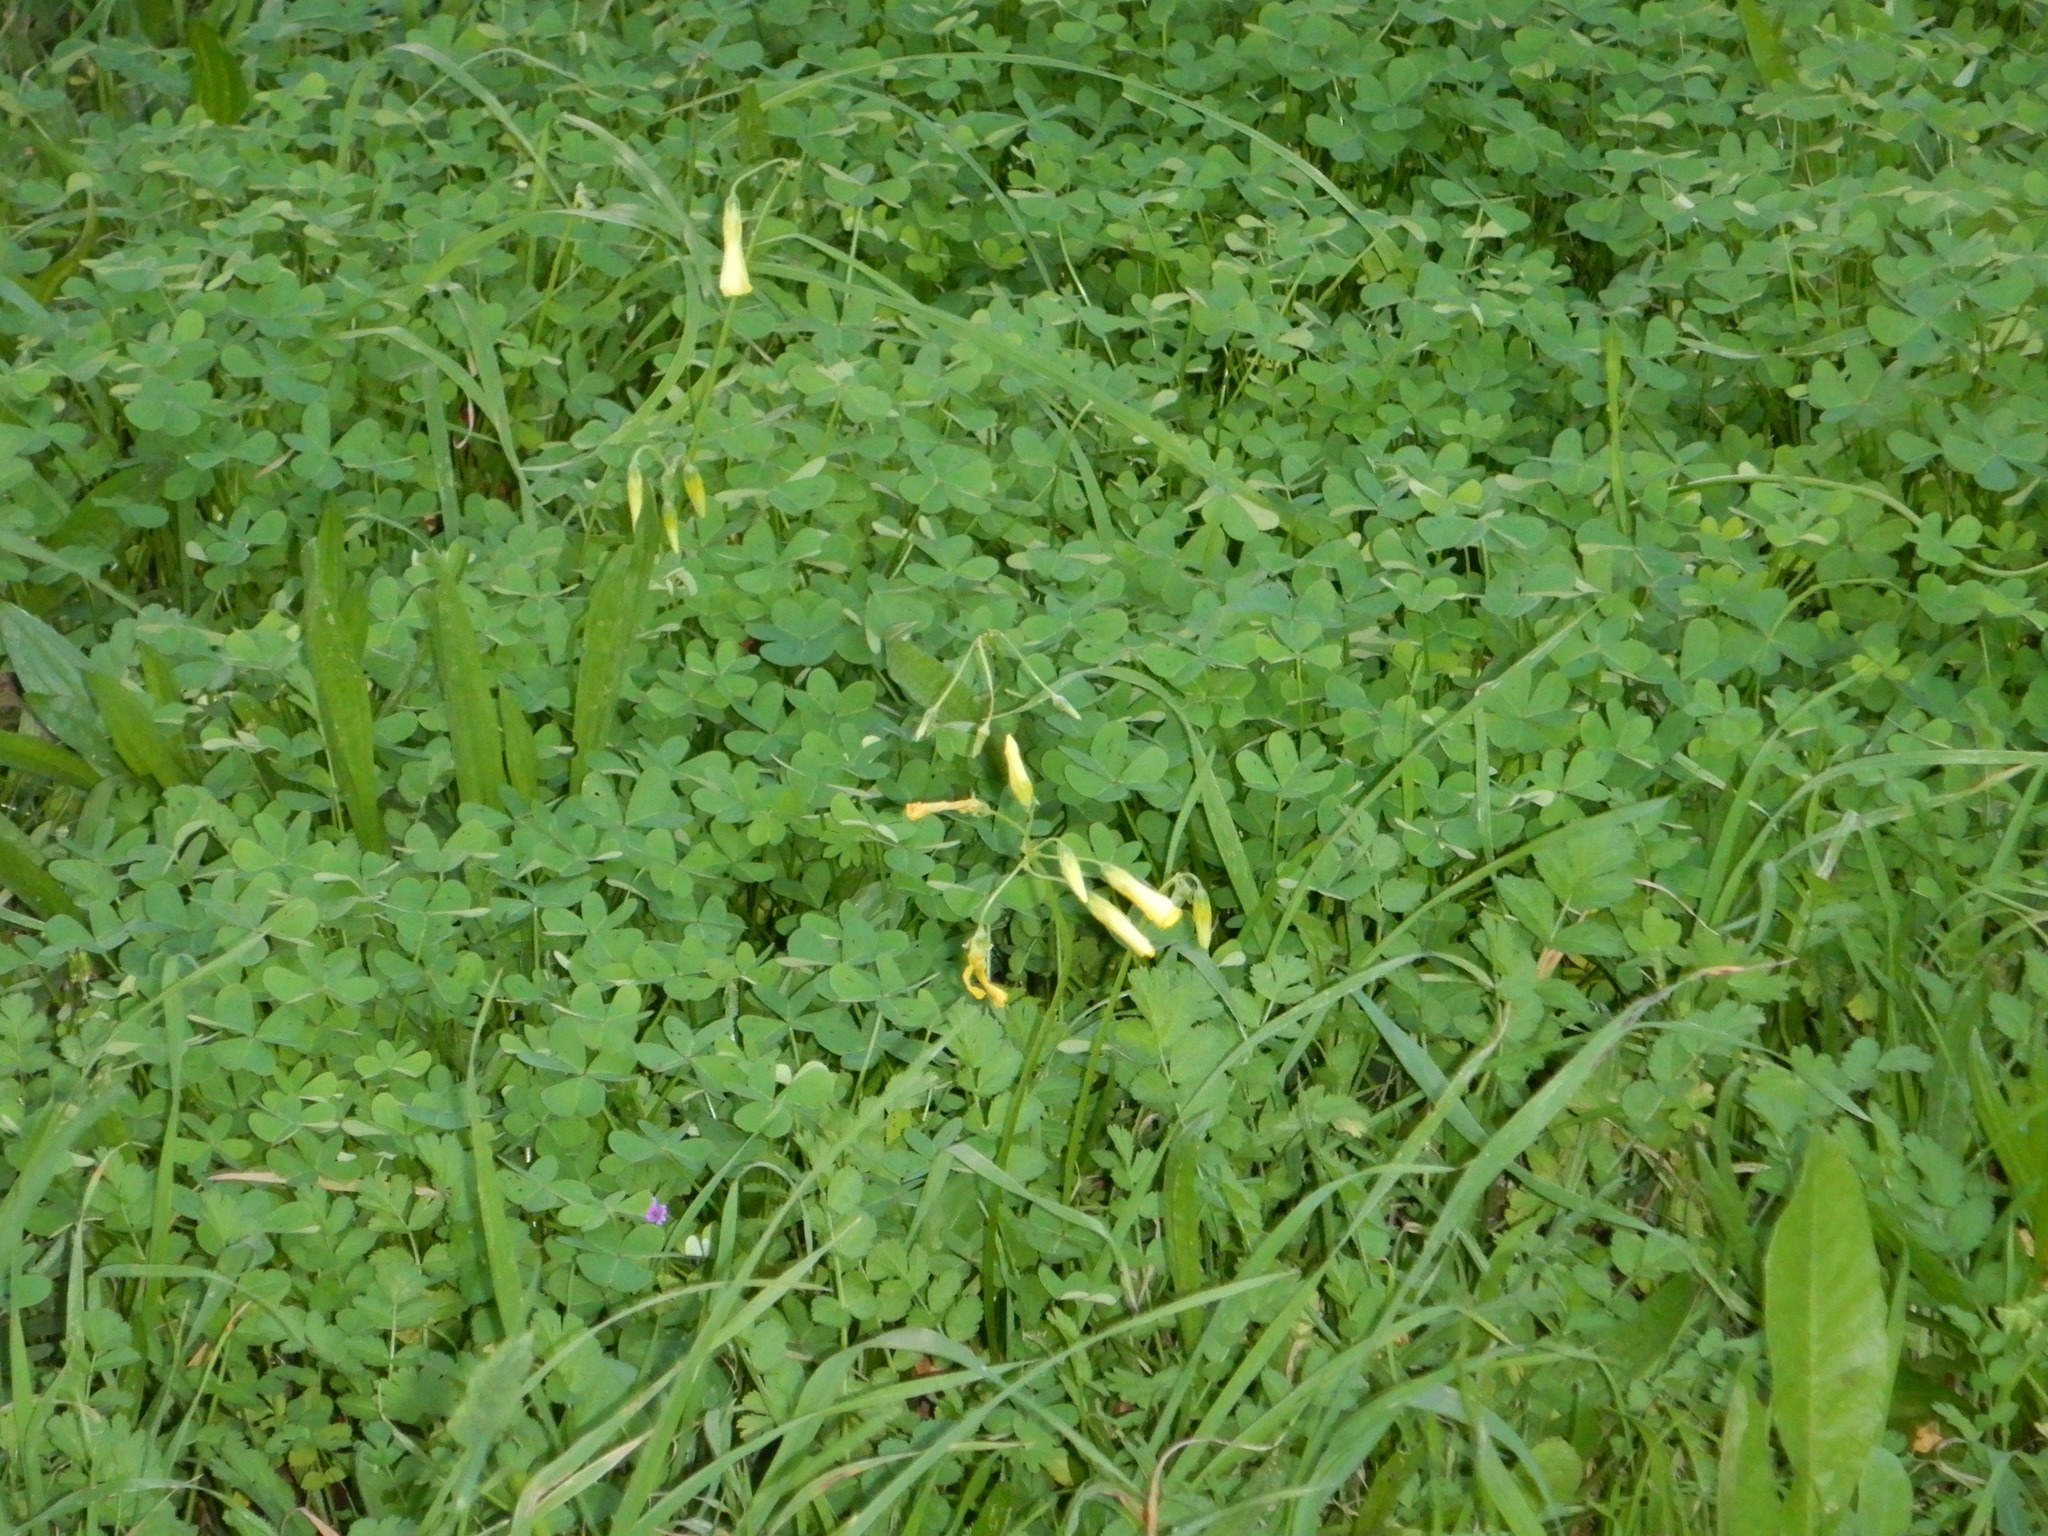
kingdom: Plantae
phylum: Tracheophyta
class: Magnoliopsida
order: Oxalidales
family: Oxalidaceae
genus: Oxalis
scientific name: Oxalis pes-caprae
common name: Bermuda-buttercup
